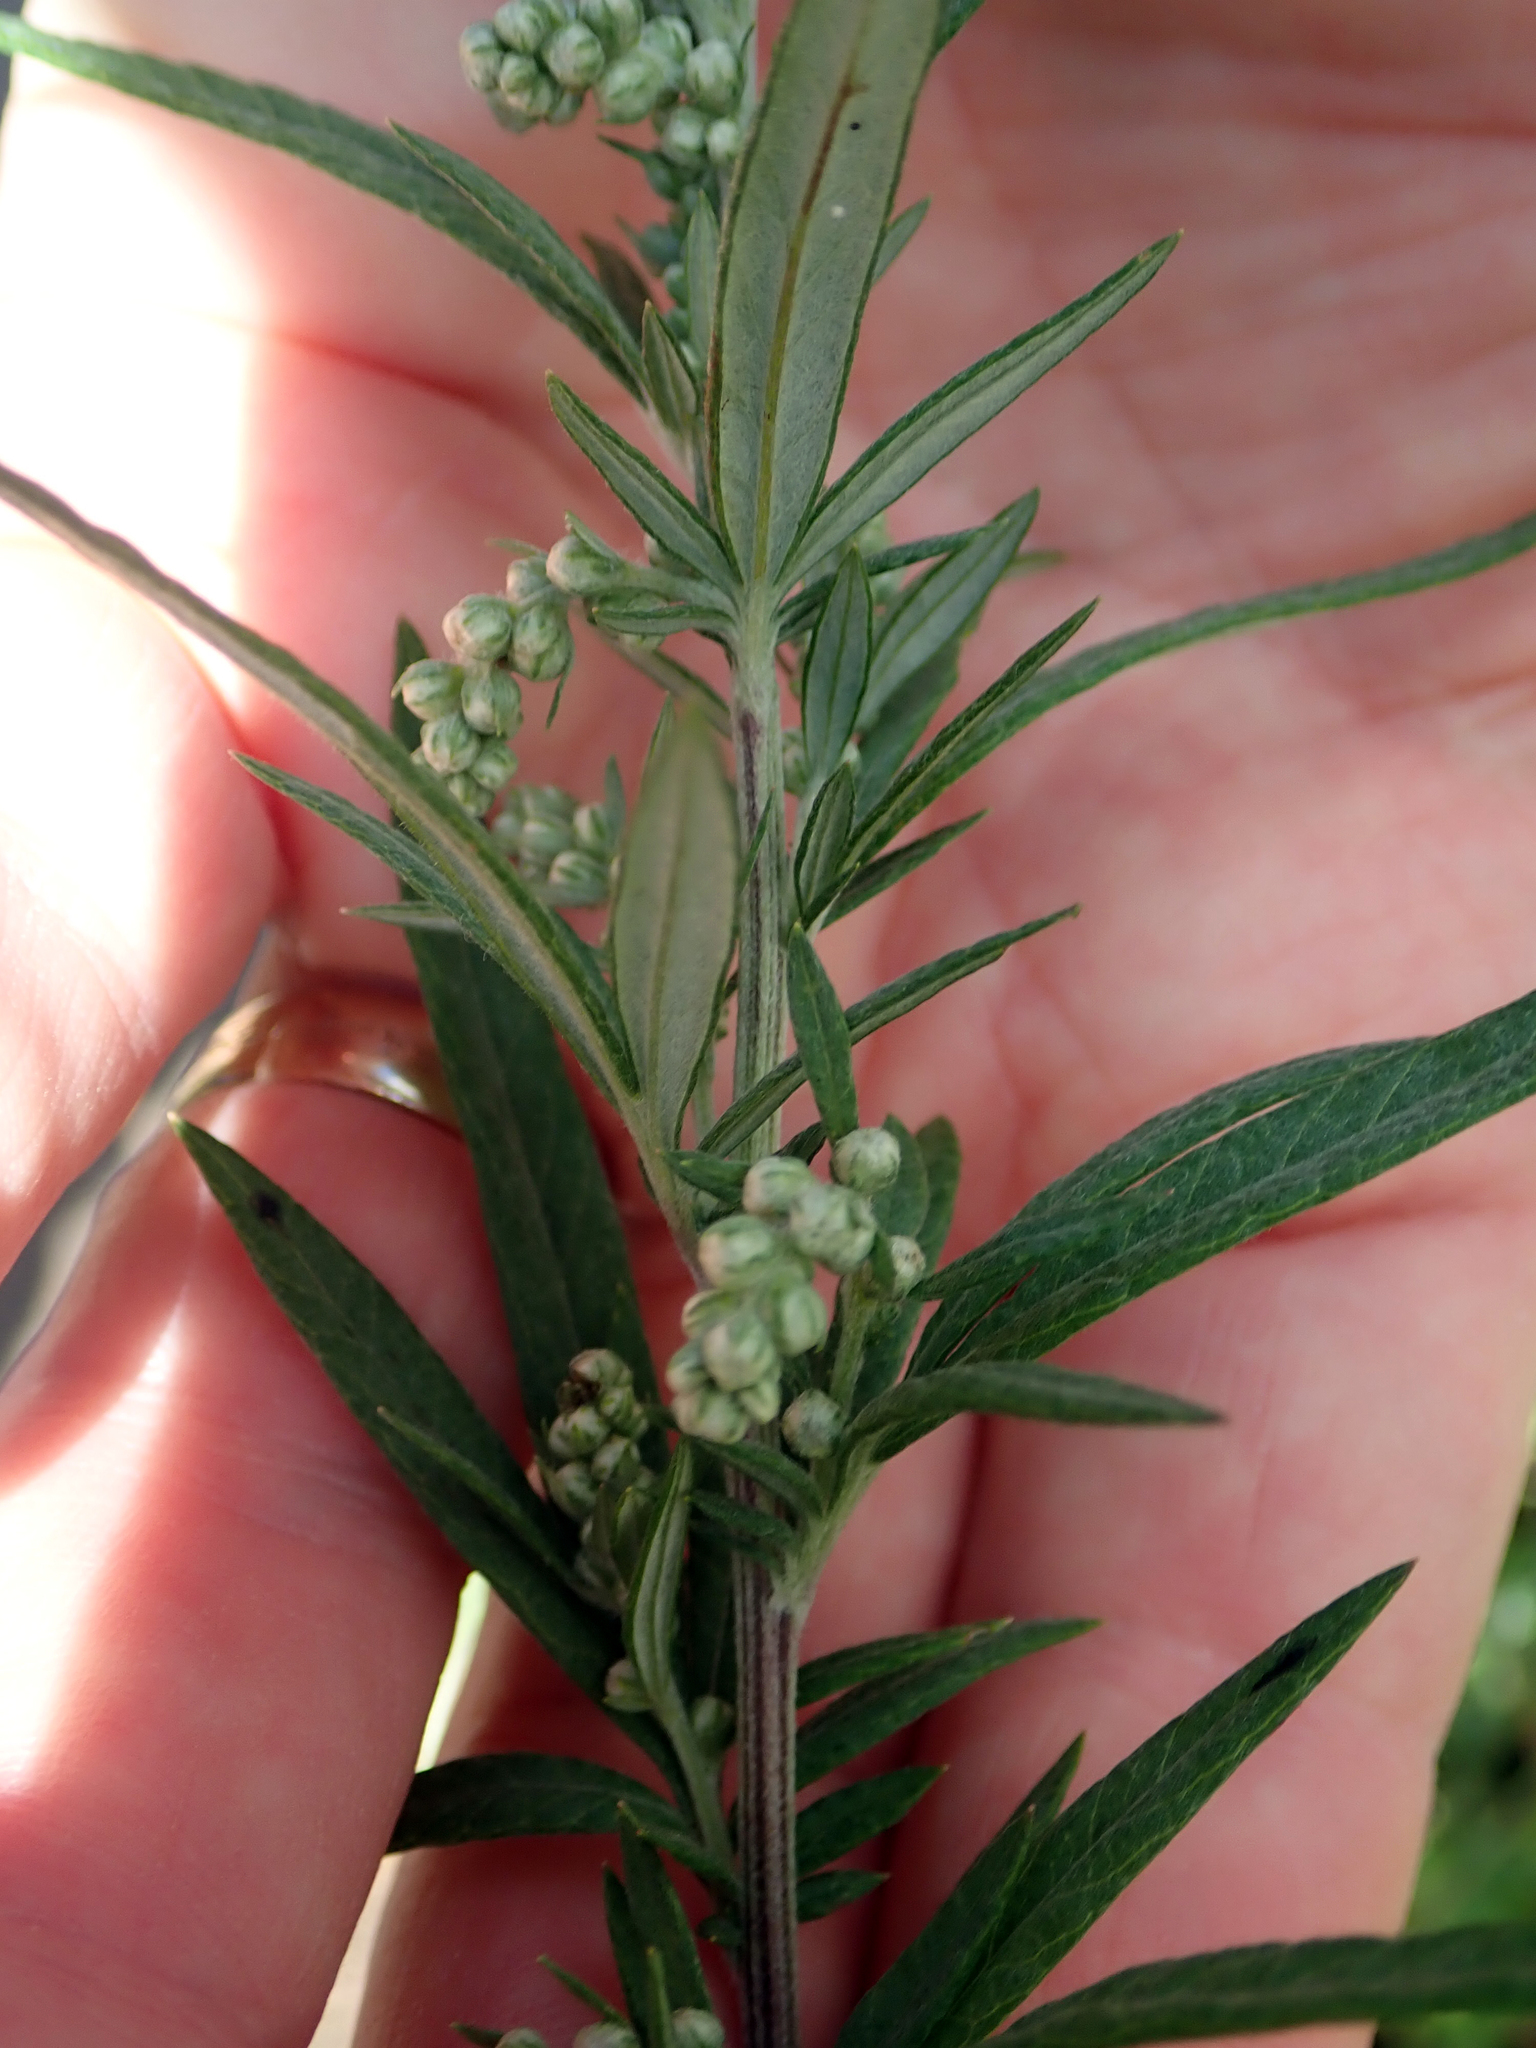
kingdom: Plantae
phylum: Tracheophyta
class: Magnoliopsida
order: Asterales
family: Asteraceae
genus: Artemisia
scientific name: Artemisia verlotiorum
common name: Chinese mugwort
